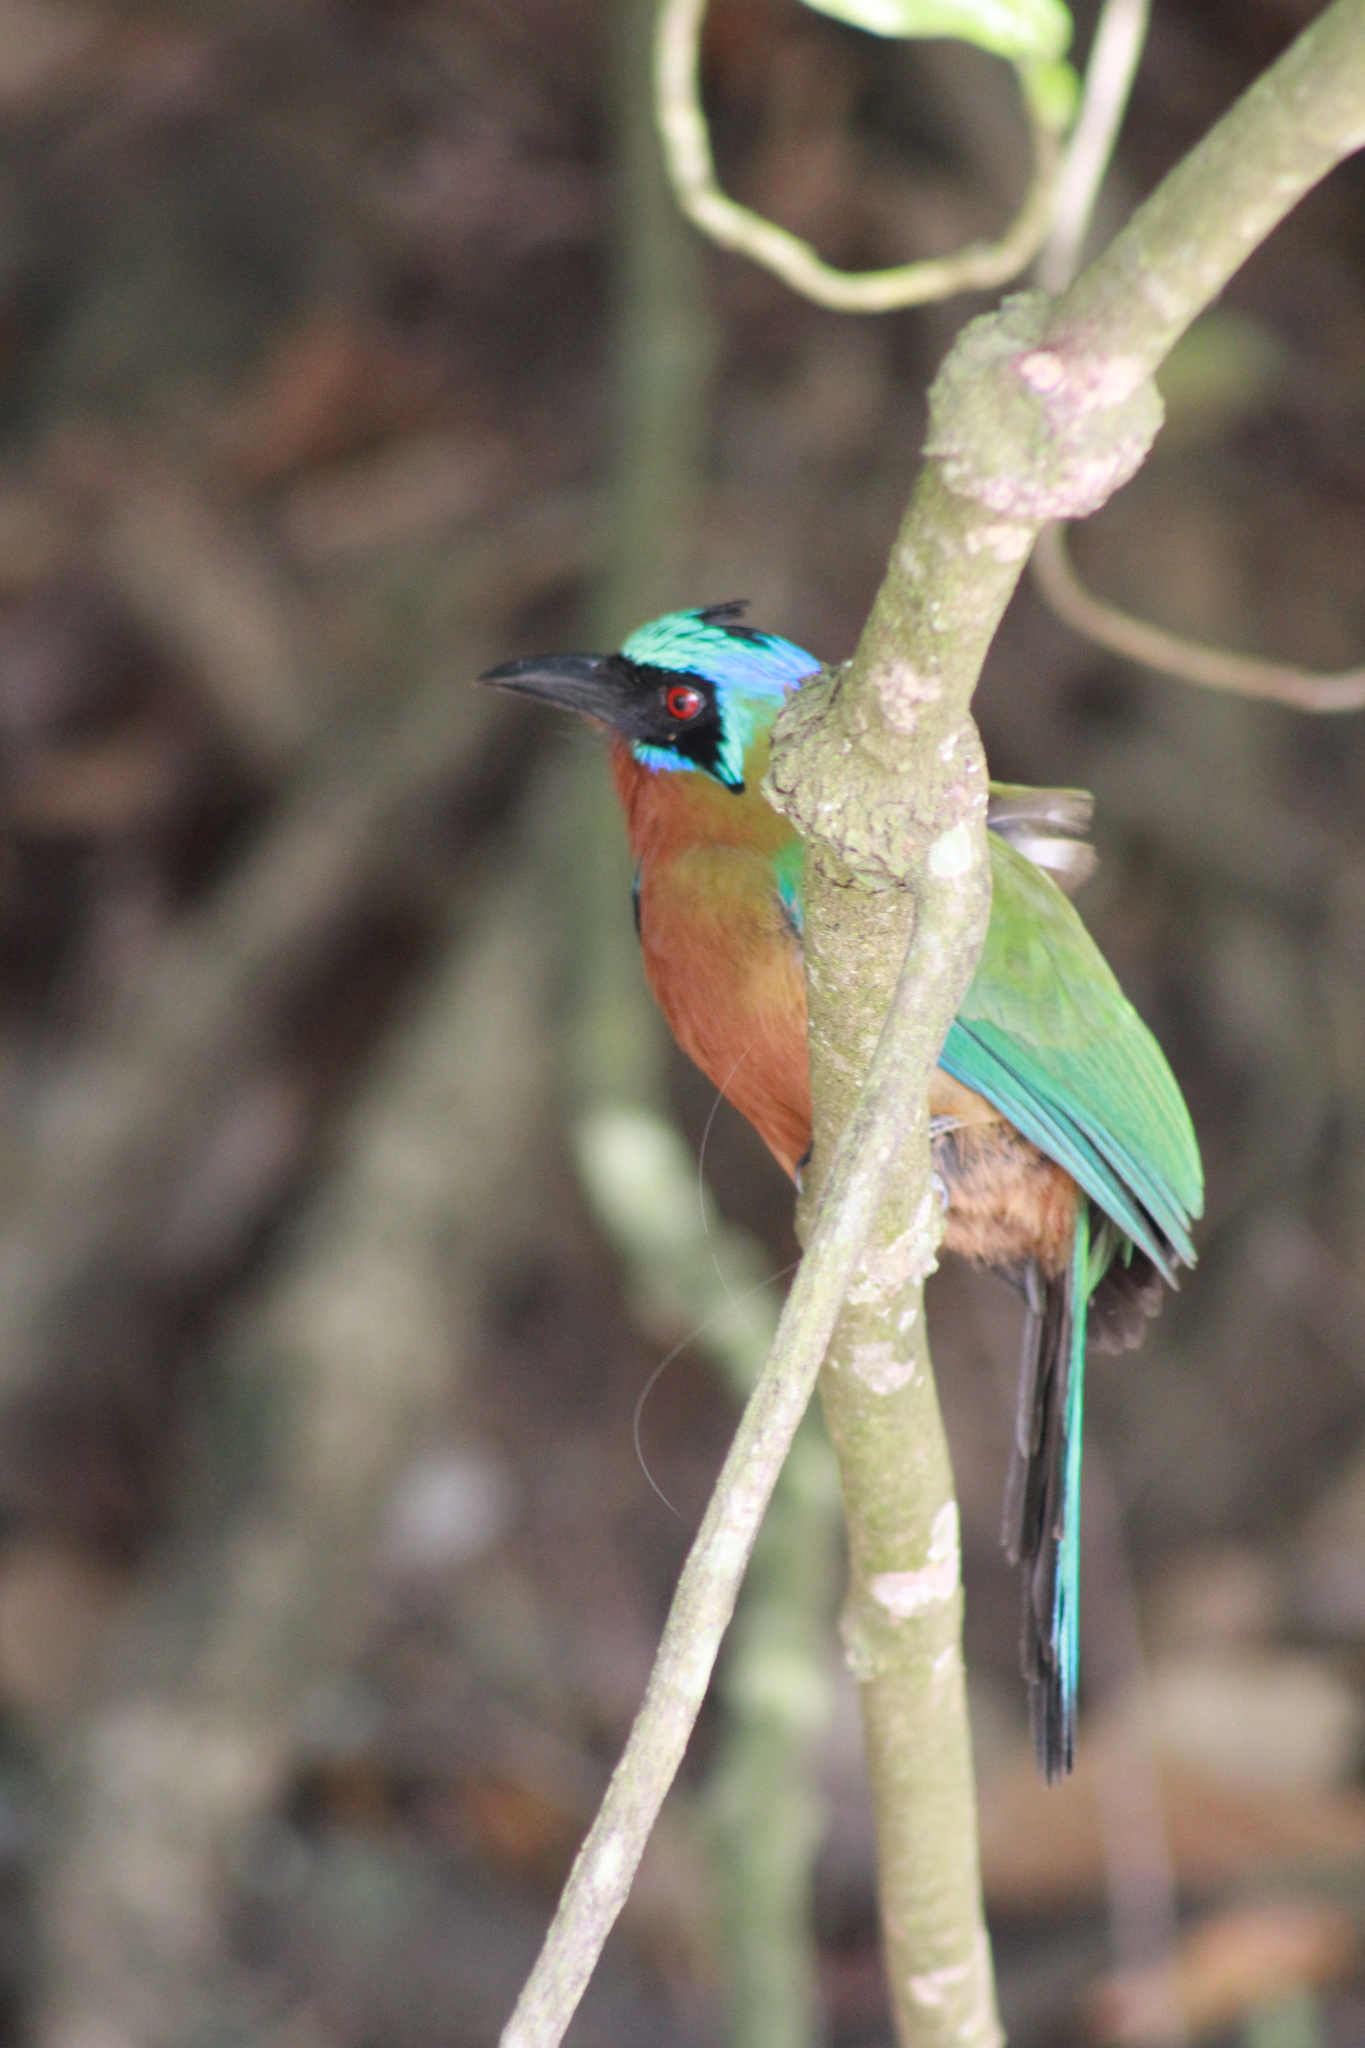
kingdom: Animalia
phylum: Chordata
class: Aves
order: Coraciiformes
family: Momotidae
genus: Momotus
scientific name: Momotus bahamensis
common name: Trinidad motmot
